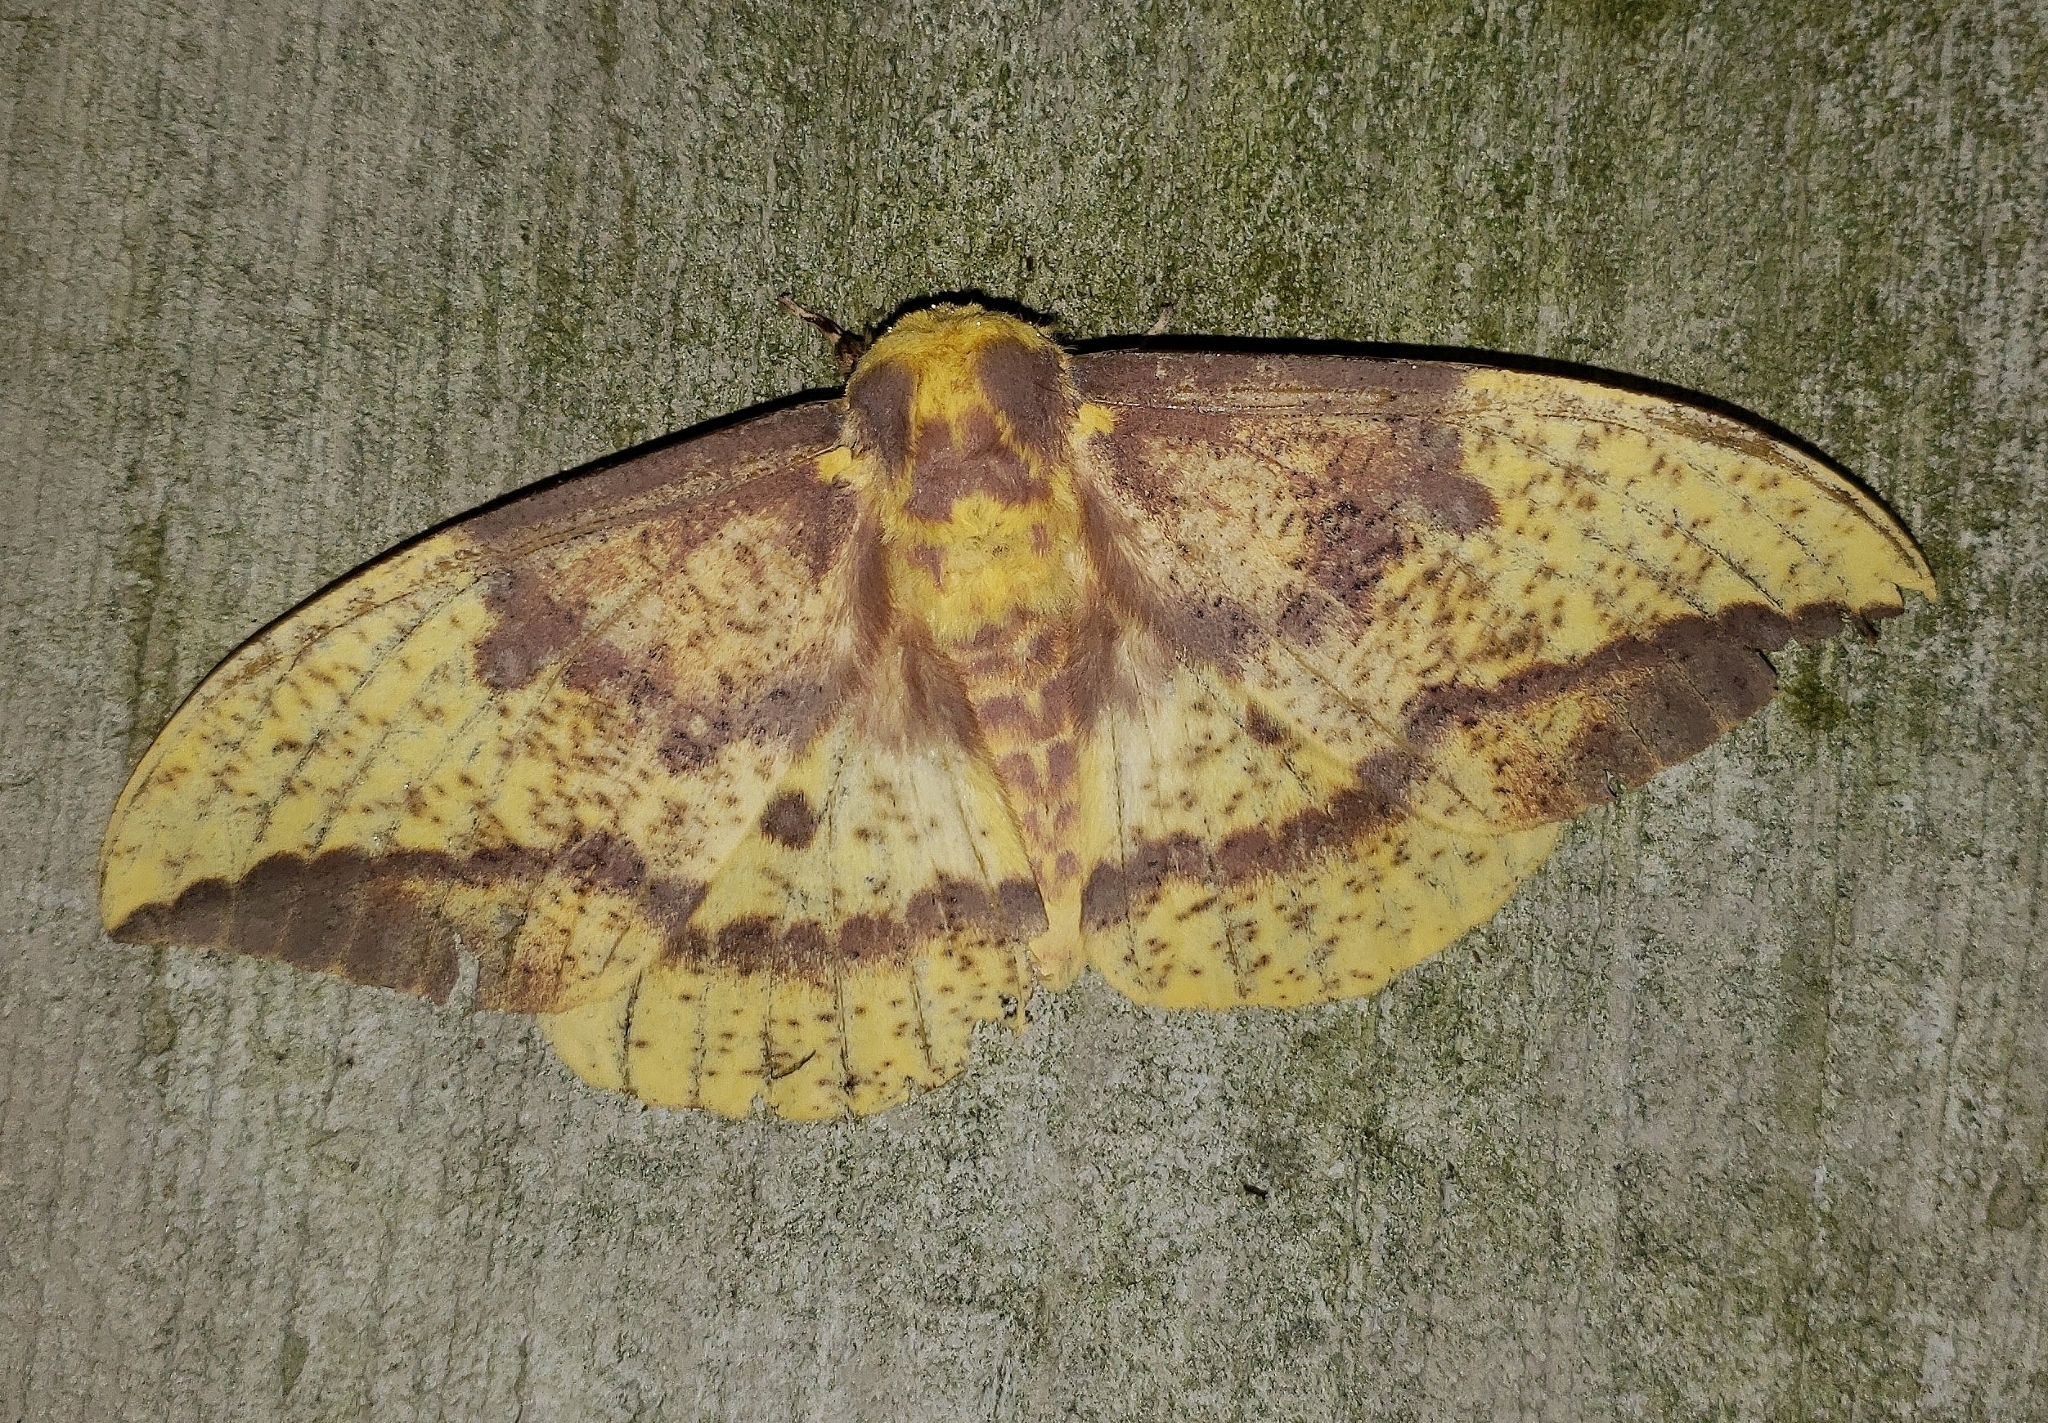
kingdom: Animalia
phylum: Arthropoda
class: Insecta
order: Lepidoptera
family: Saturniidae
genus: Eacles
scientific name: Eacles imperialis
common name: Imperial moth
